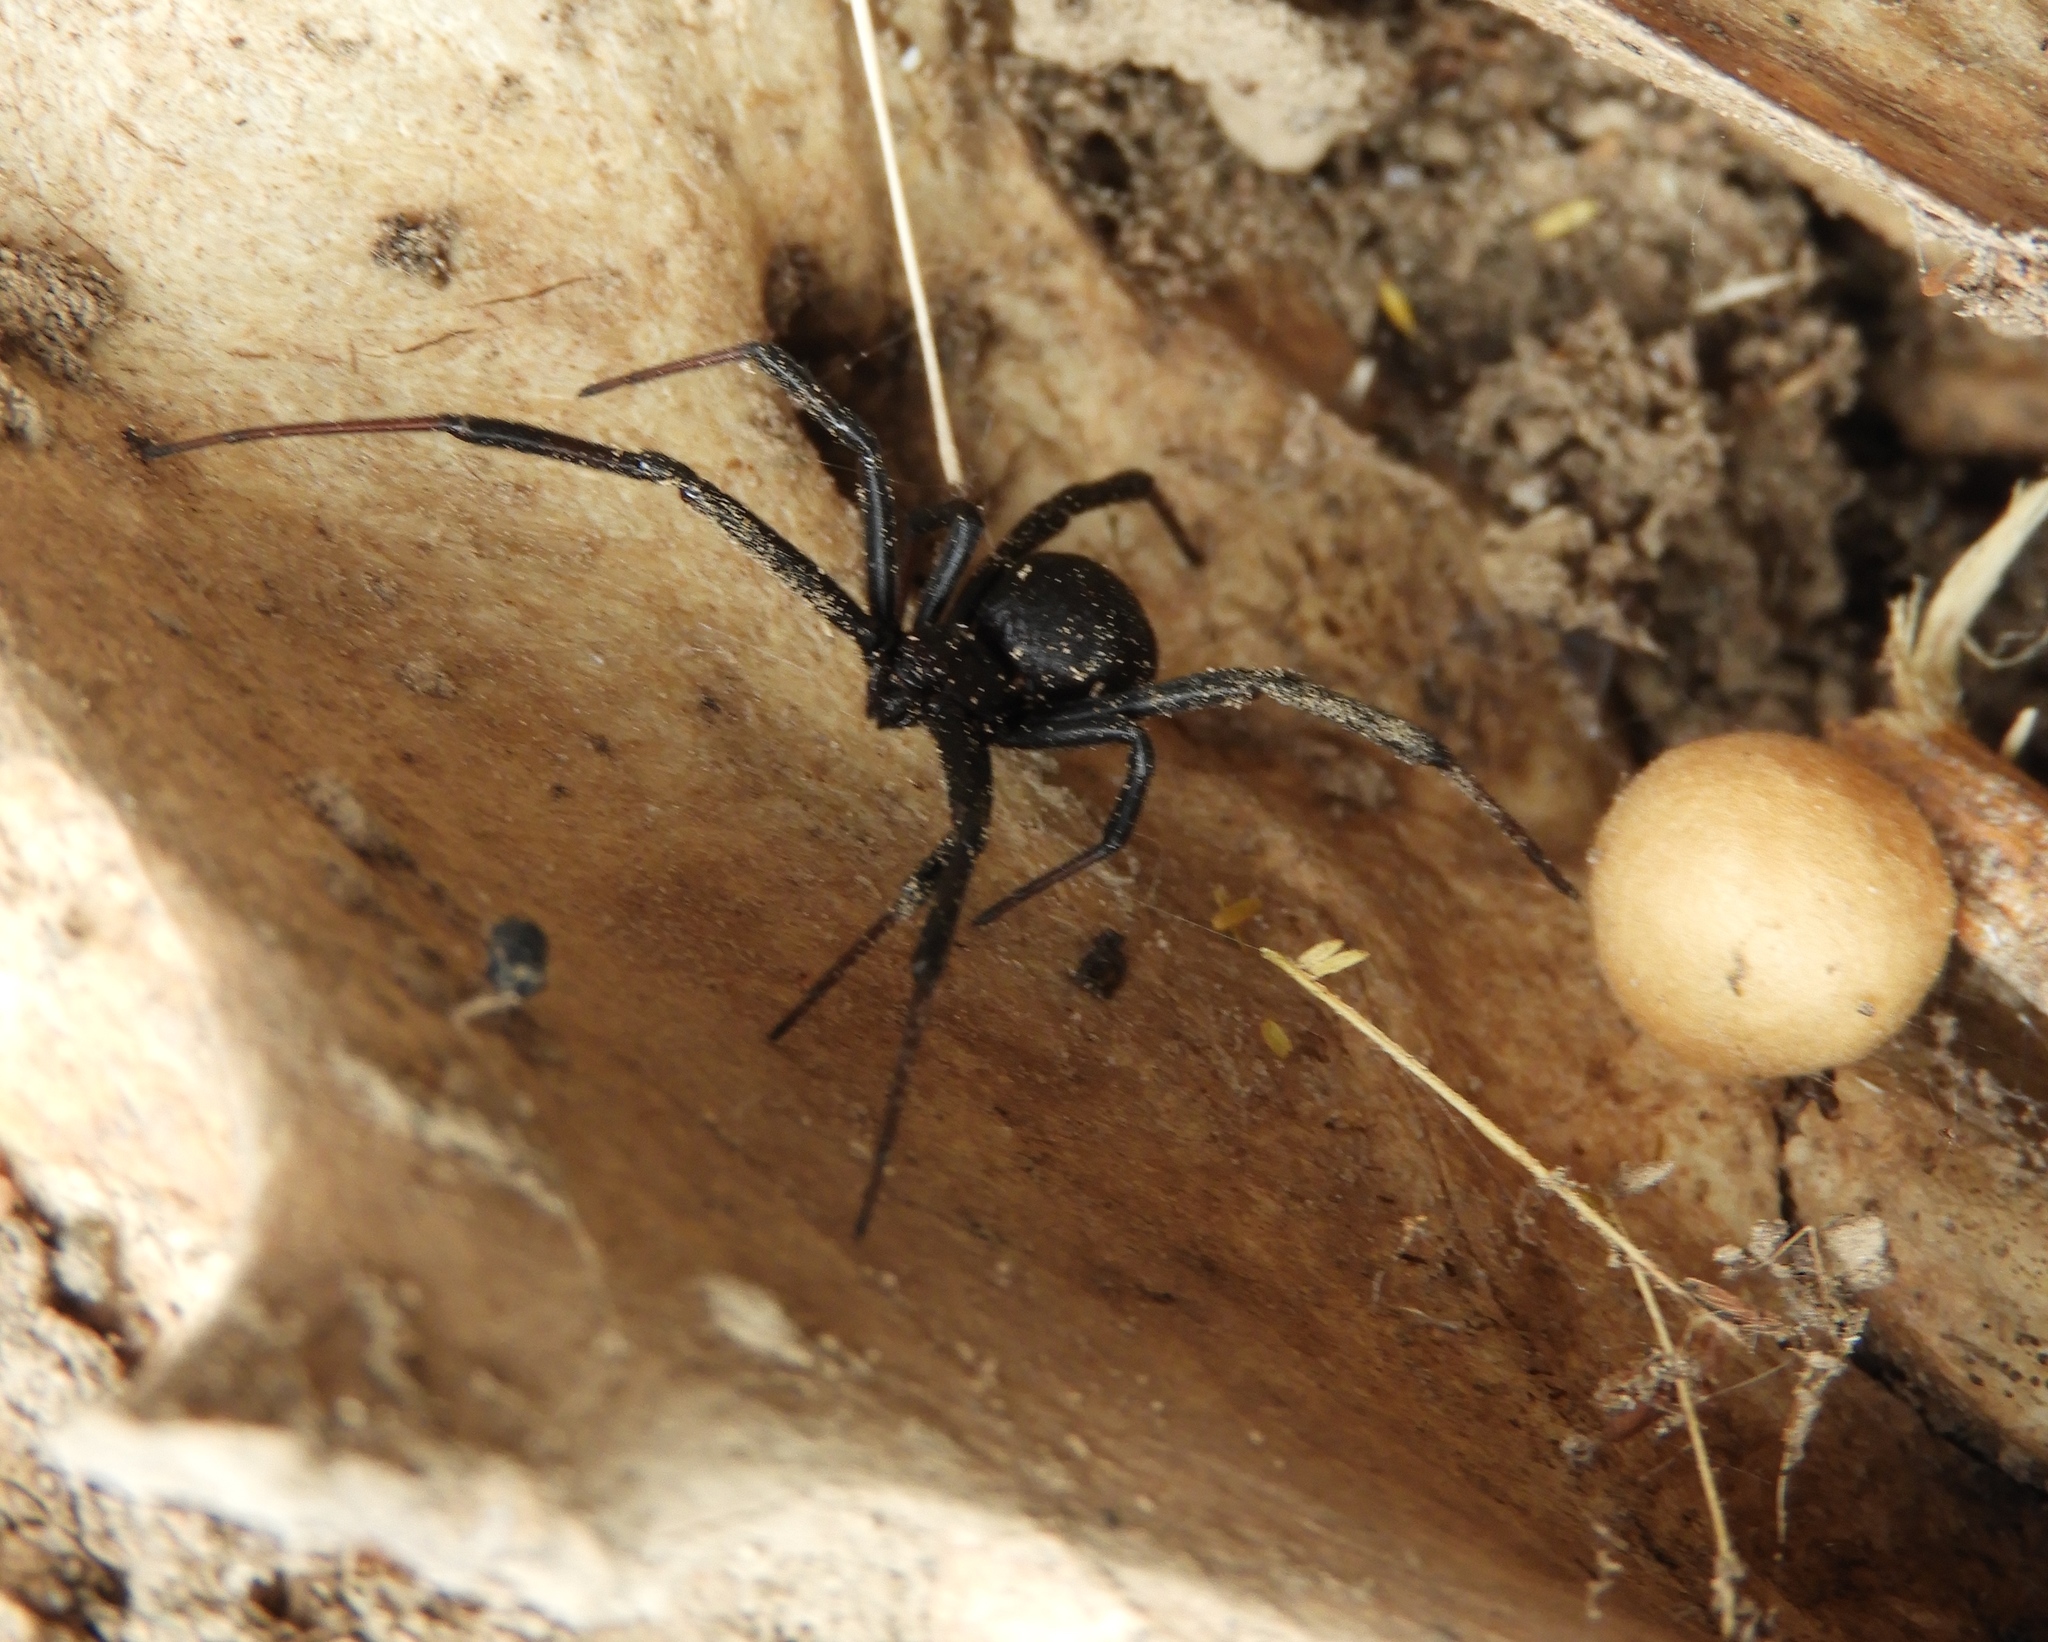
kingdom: Animalia
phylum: Arthropoda
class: Arachnida
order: Araneae
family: Theridiidae
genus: Latrodectus
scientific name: Latrodectus mactans
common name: Cobweb spiders
